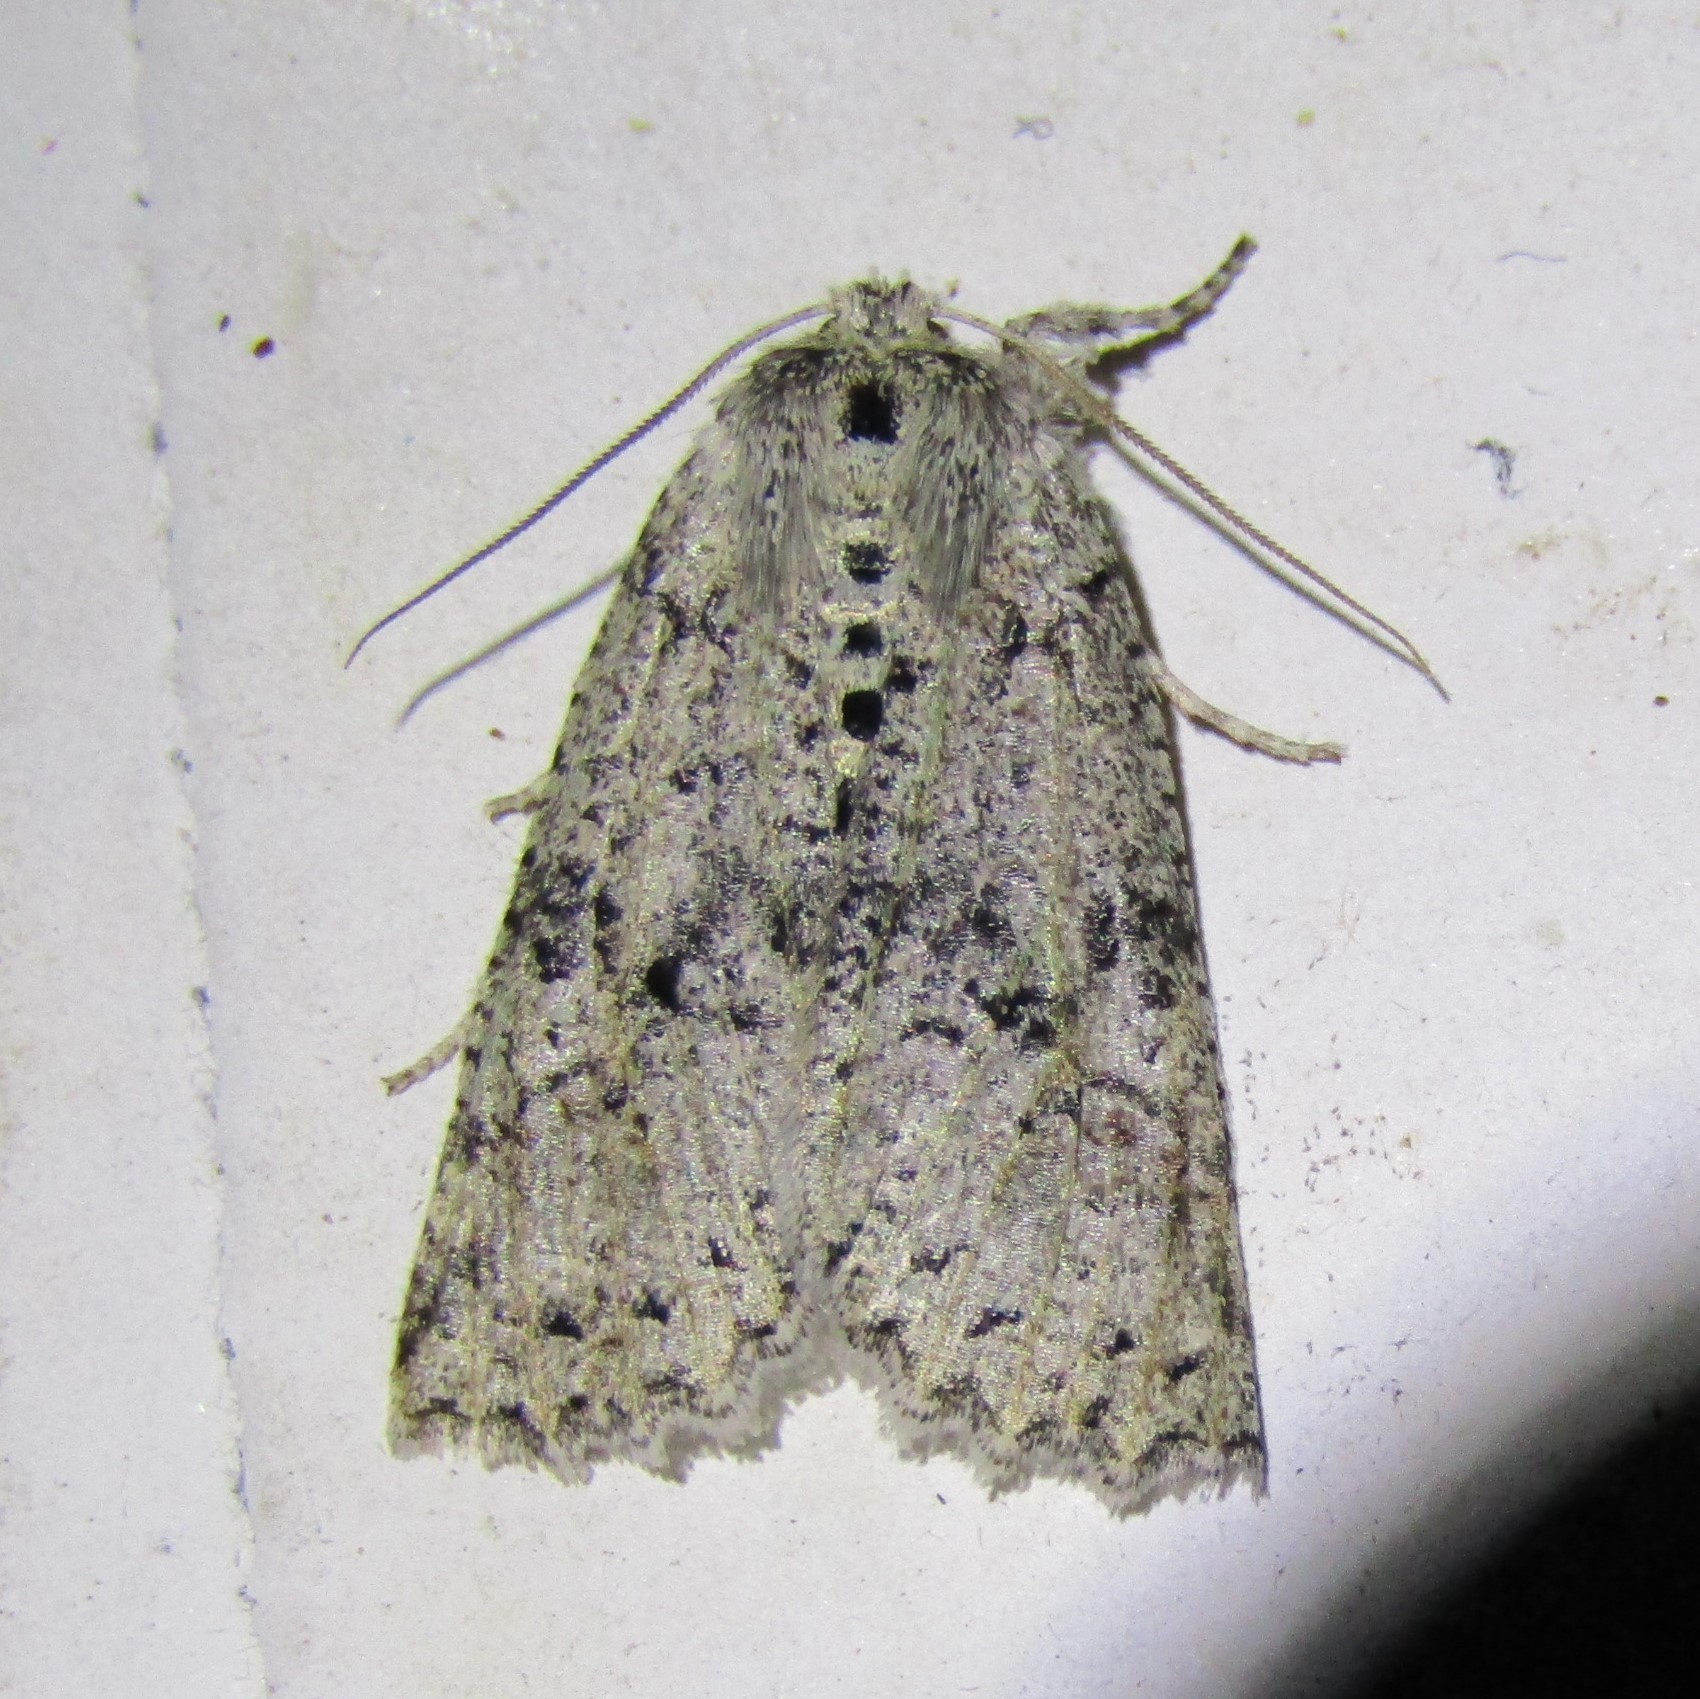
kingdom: Animalia
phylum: Arthropoda
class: Insecta
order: Lepidoptera
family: Geometridae
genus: Declana
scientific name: Declana floccosa
